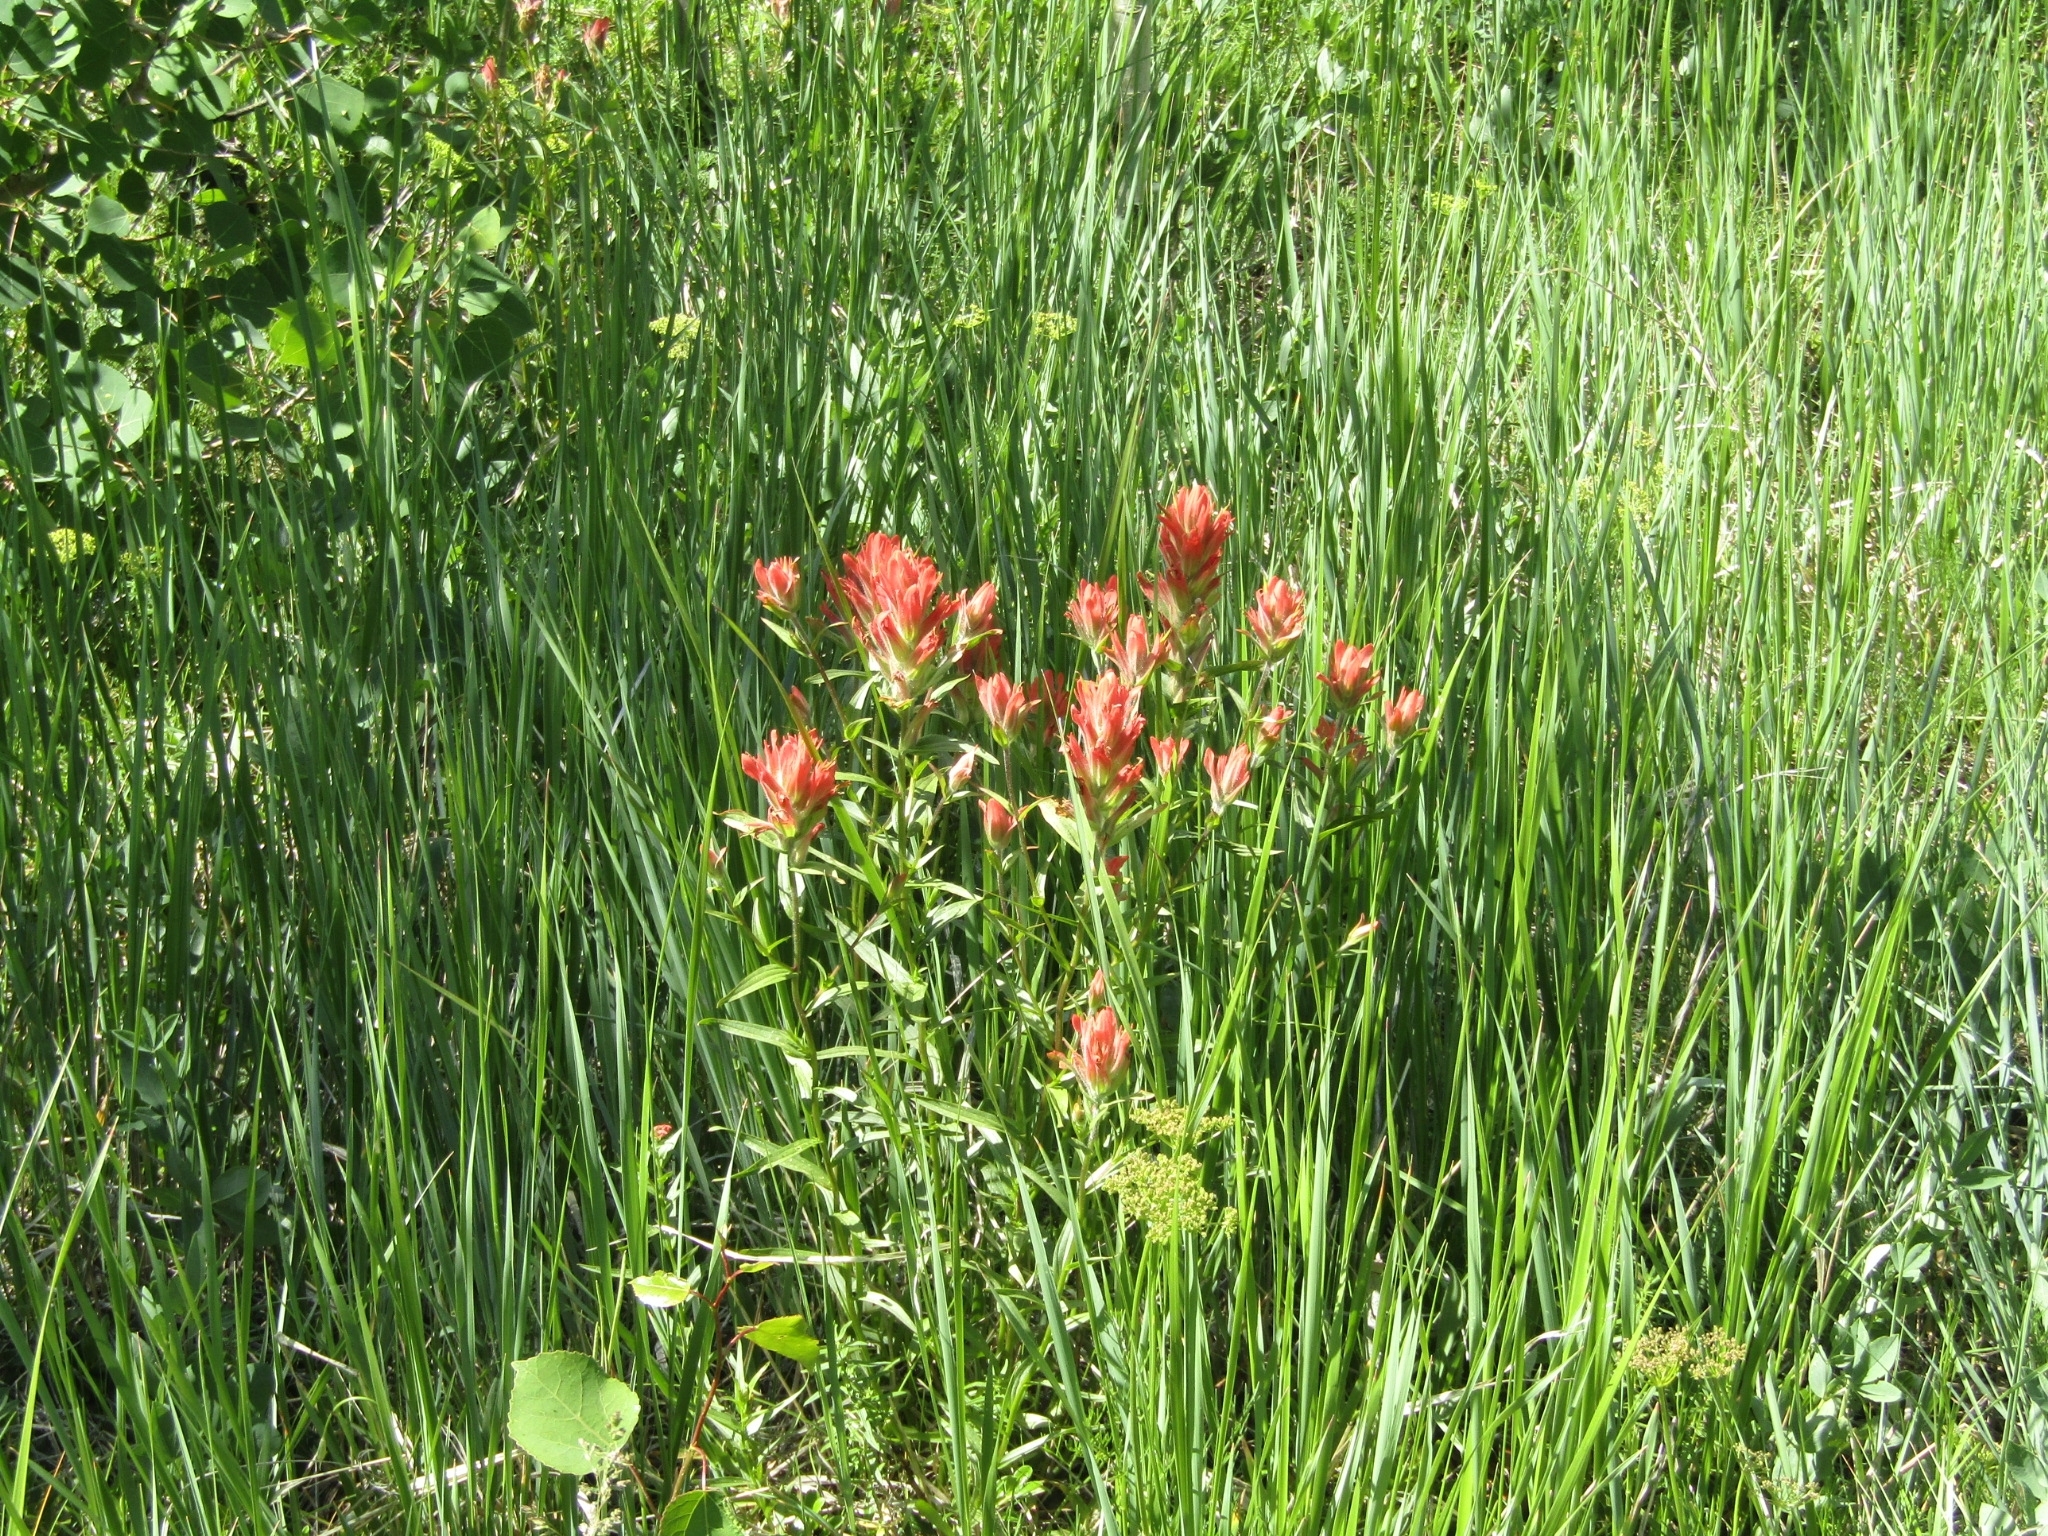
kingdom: Plantae
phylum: Tracheophyta
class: Magnoliopsida
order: Lamiales
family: Orobanchaceae
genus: Castilleja
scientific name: Castilleja miniata
